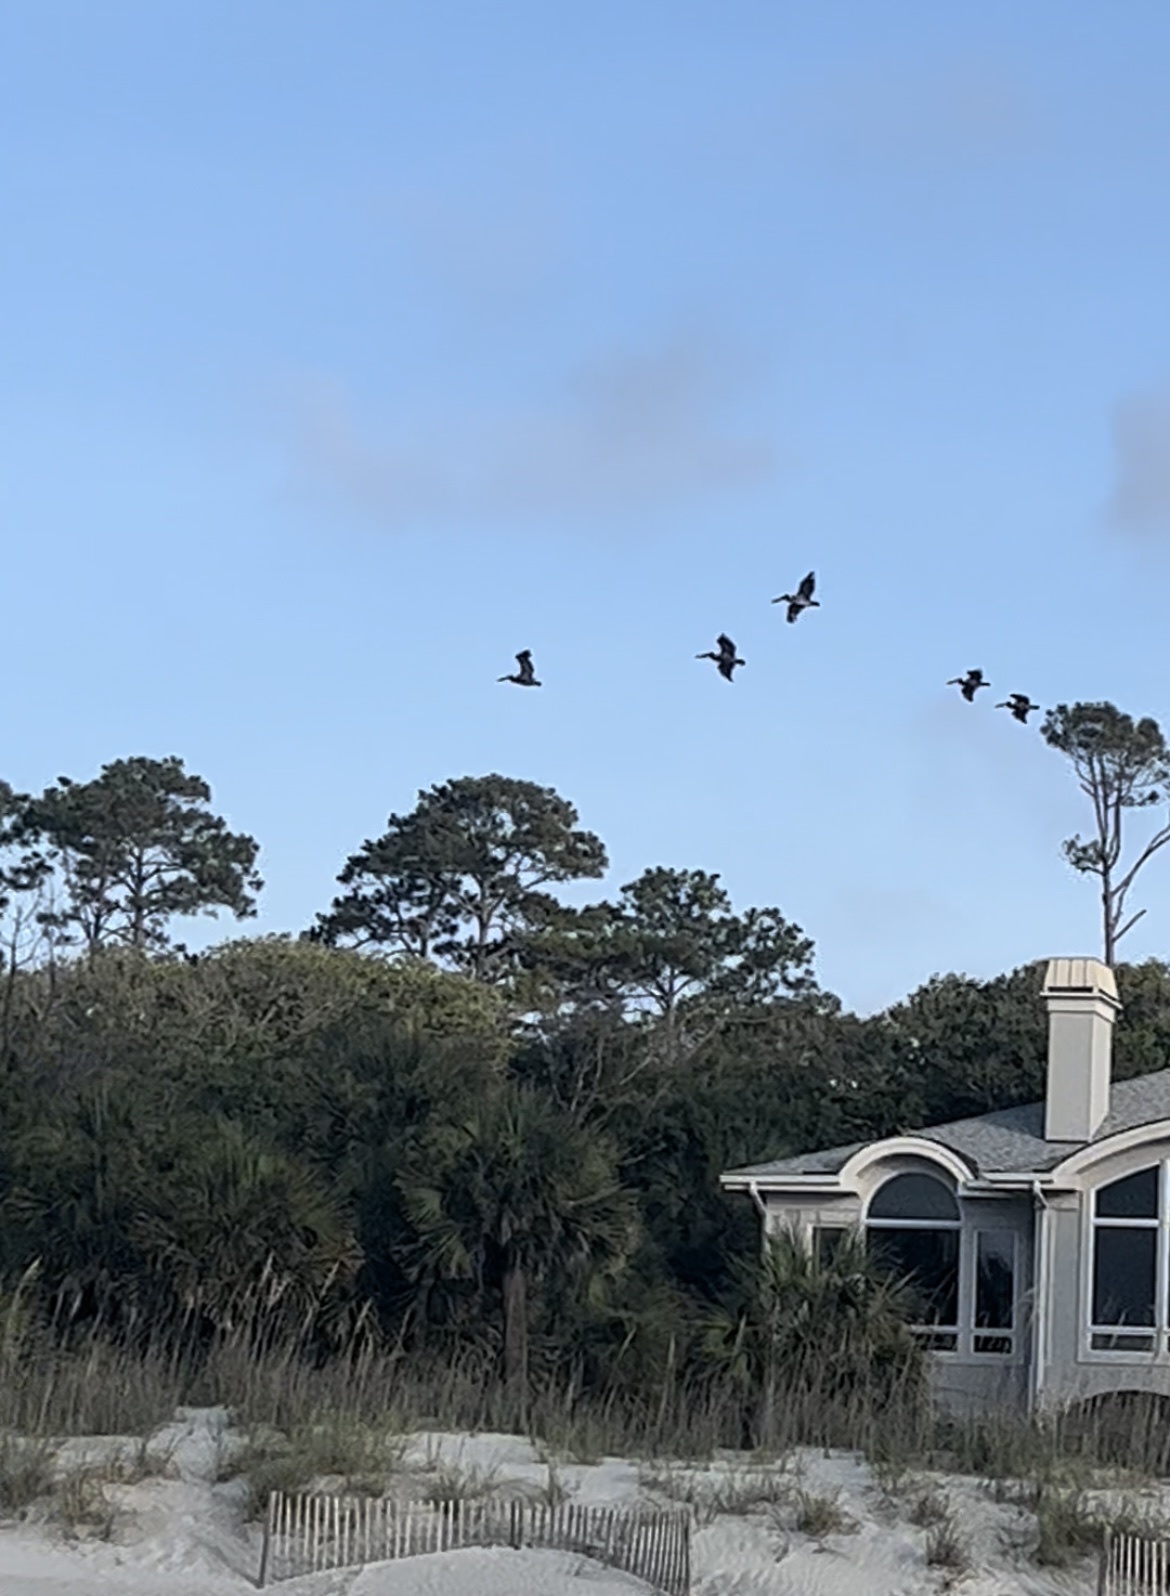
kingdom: Animalia
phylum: Chordata
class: Aves
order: Pelecaniformes
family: Pelecanidae
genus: Pelecanus
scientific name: Pelecanus occidentalis
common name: Brown pelican
